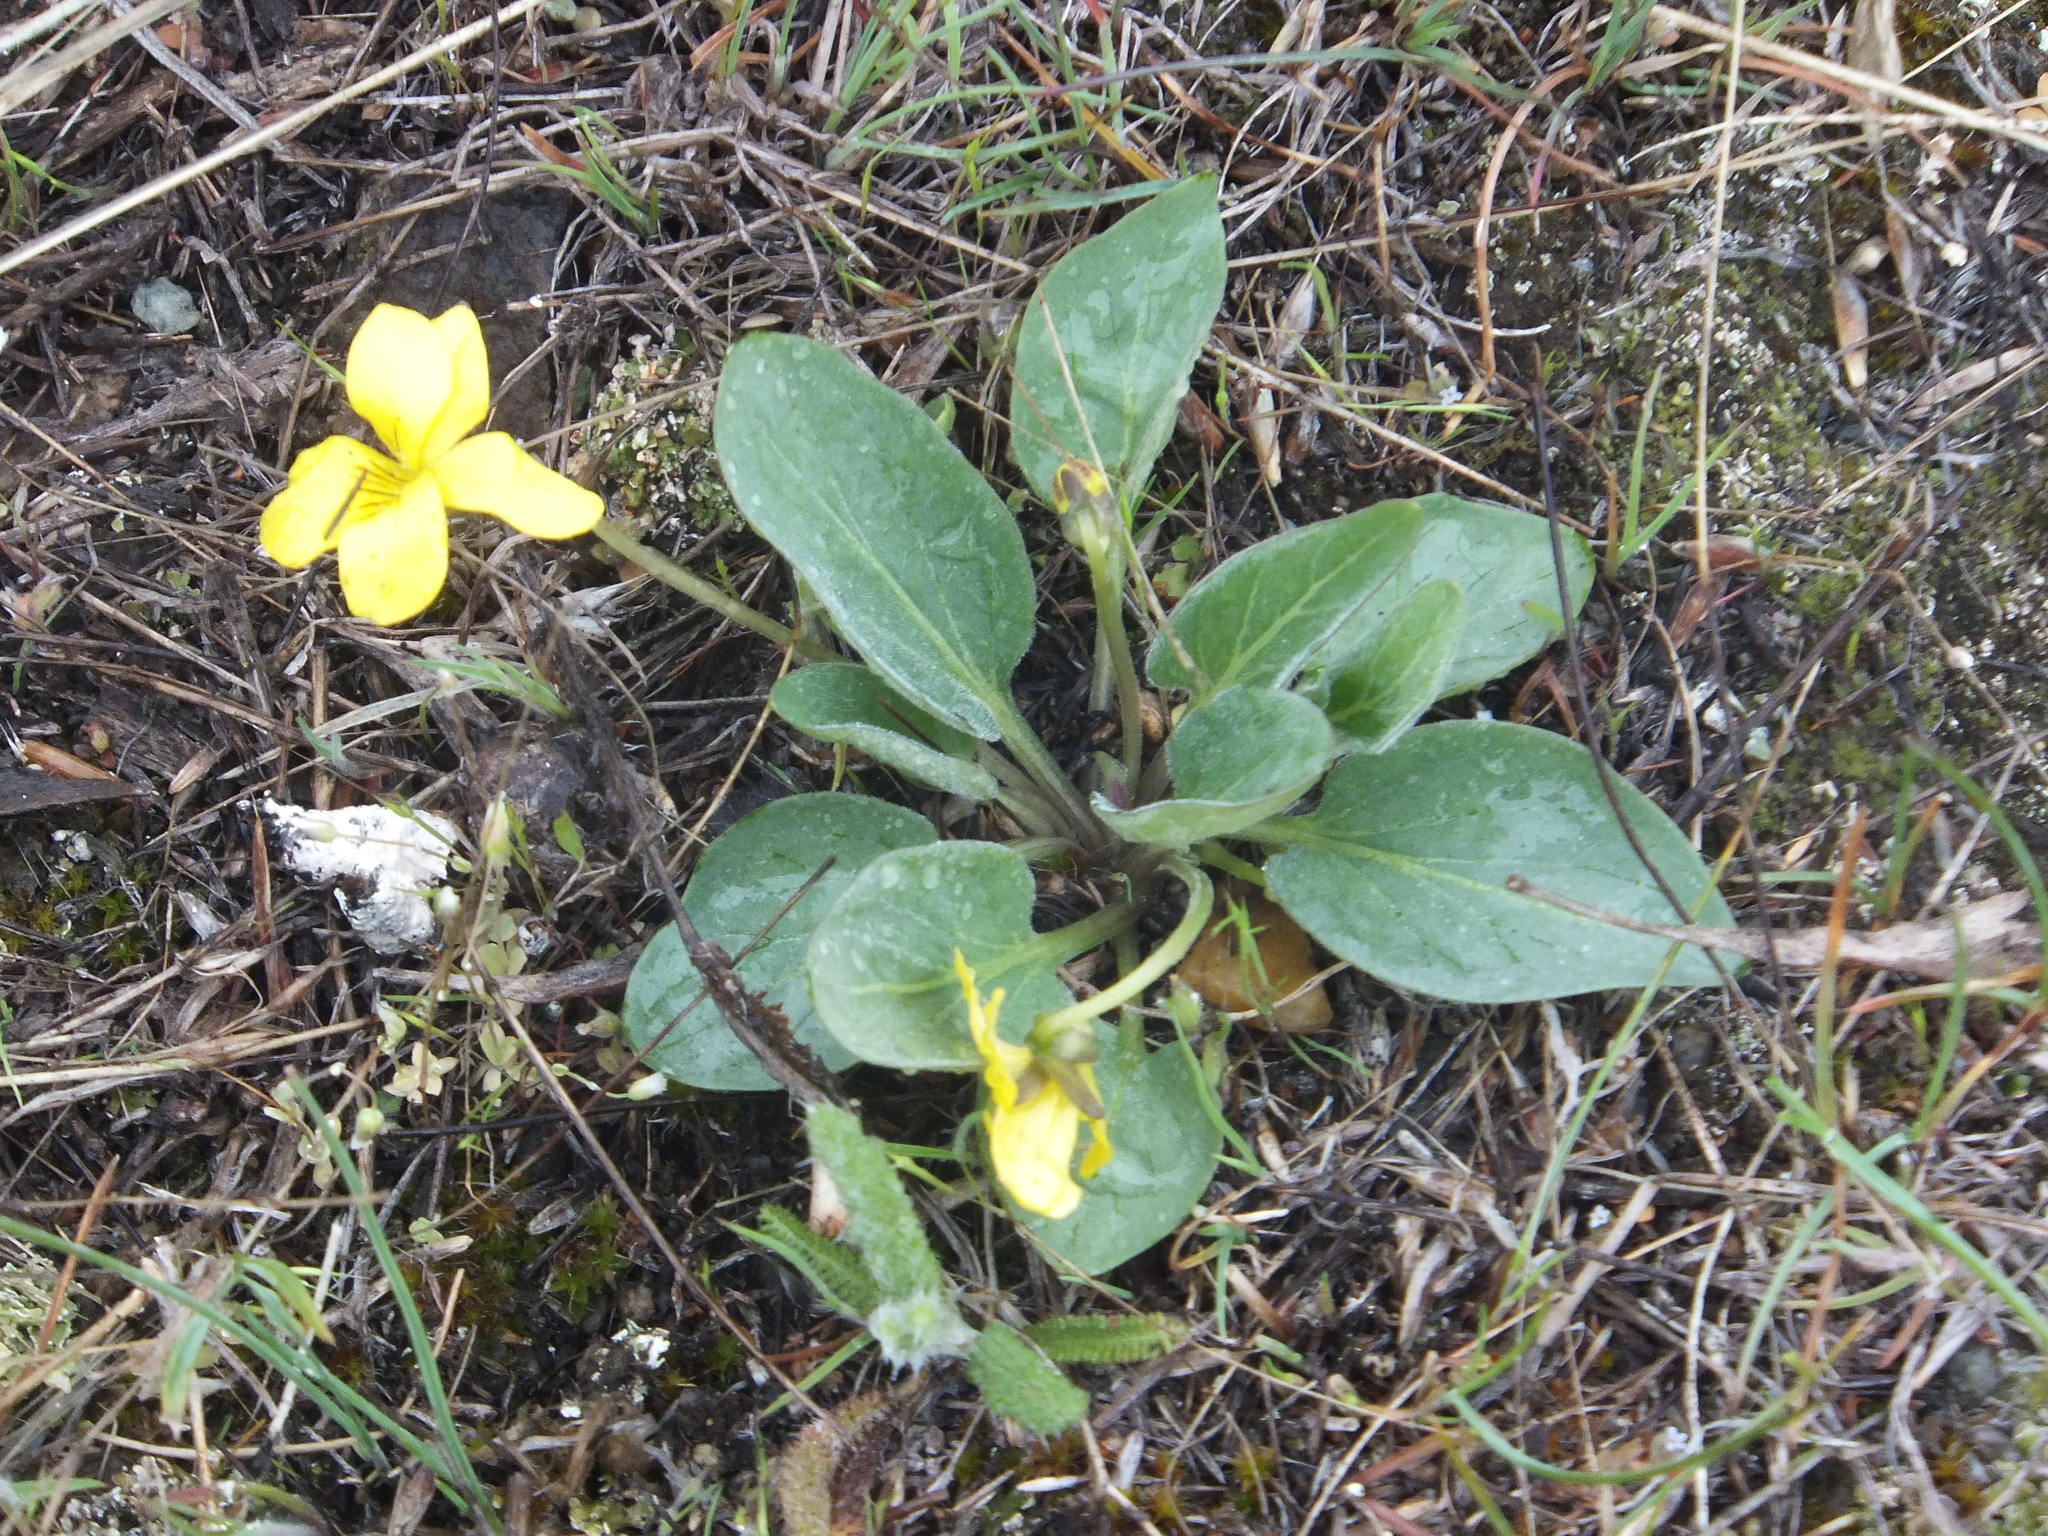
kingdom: Plantae
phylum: Tracheophyta
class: Magnoliopsida
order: Malpighiales
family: Violaceae
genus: Viola
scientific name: Viola vallicola
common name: Valley violet
